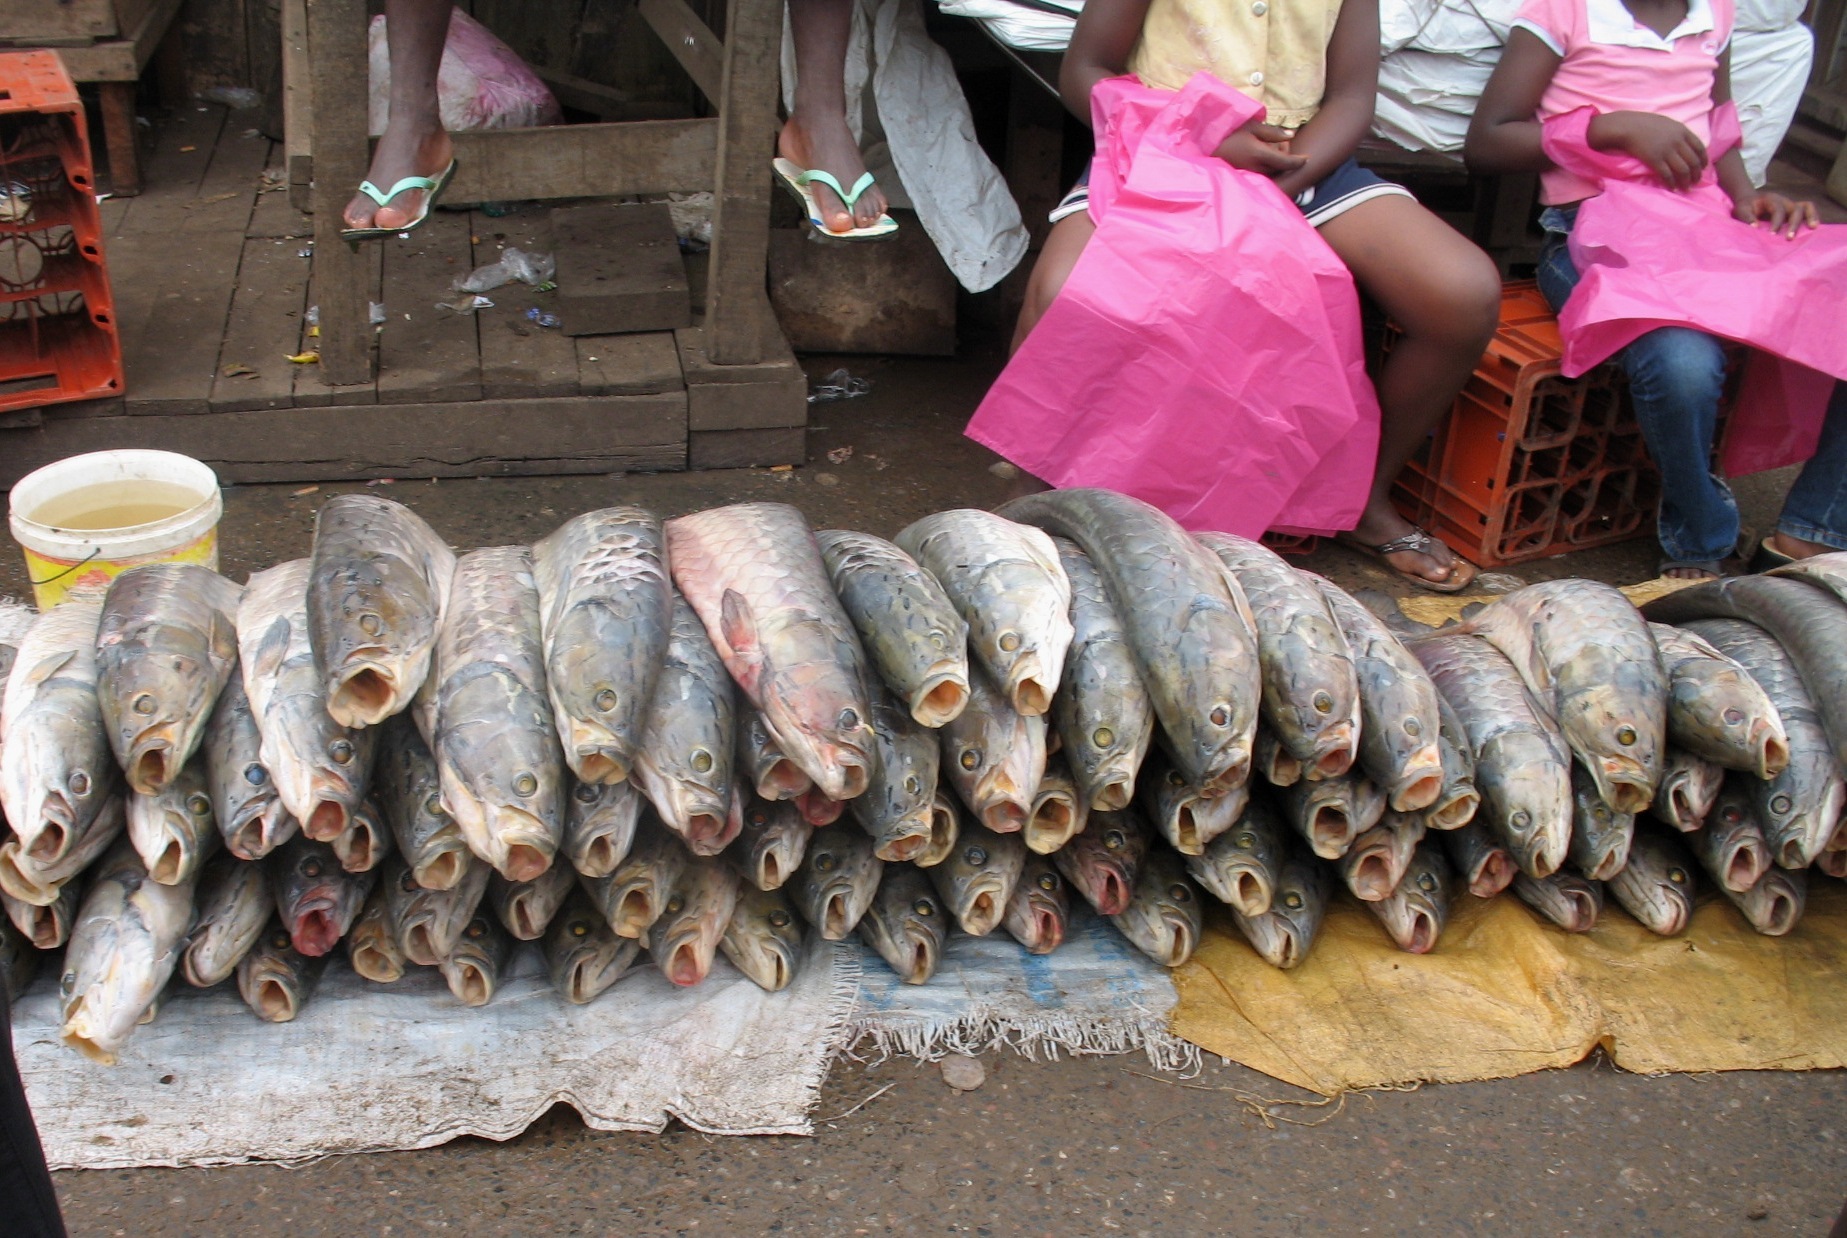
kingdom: Animalia
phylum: Chordata
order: Osteoglossiformes
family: Arapaimidae
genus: Heterotis
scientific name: Heterotis niloticus
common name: African bonytongue
